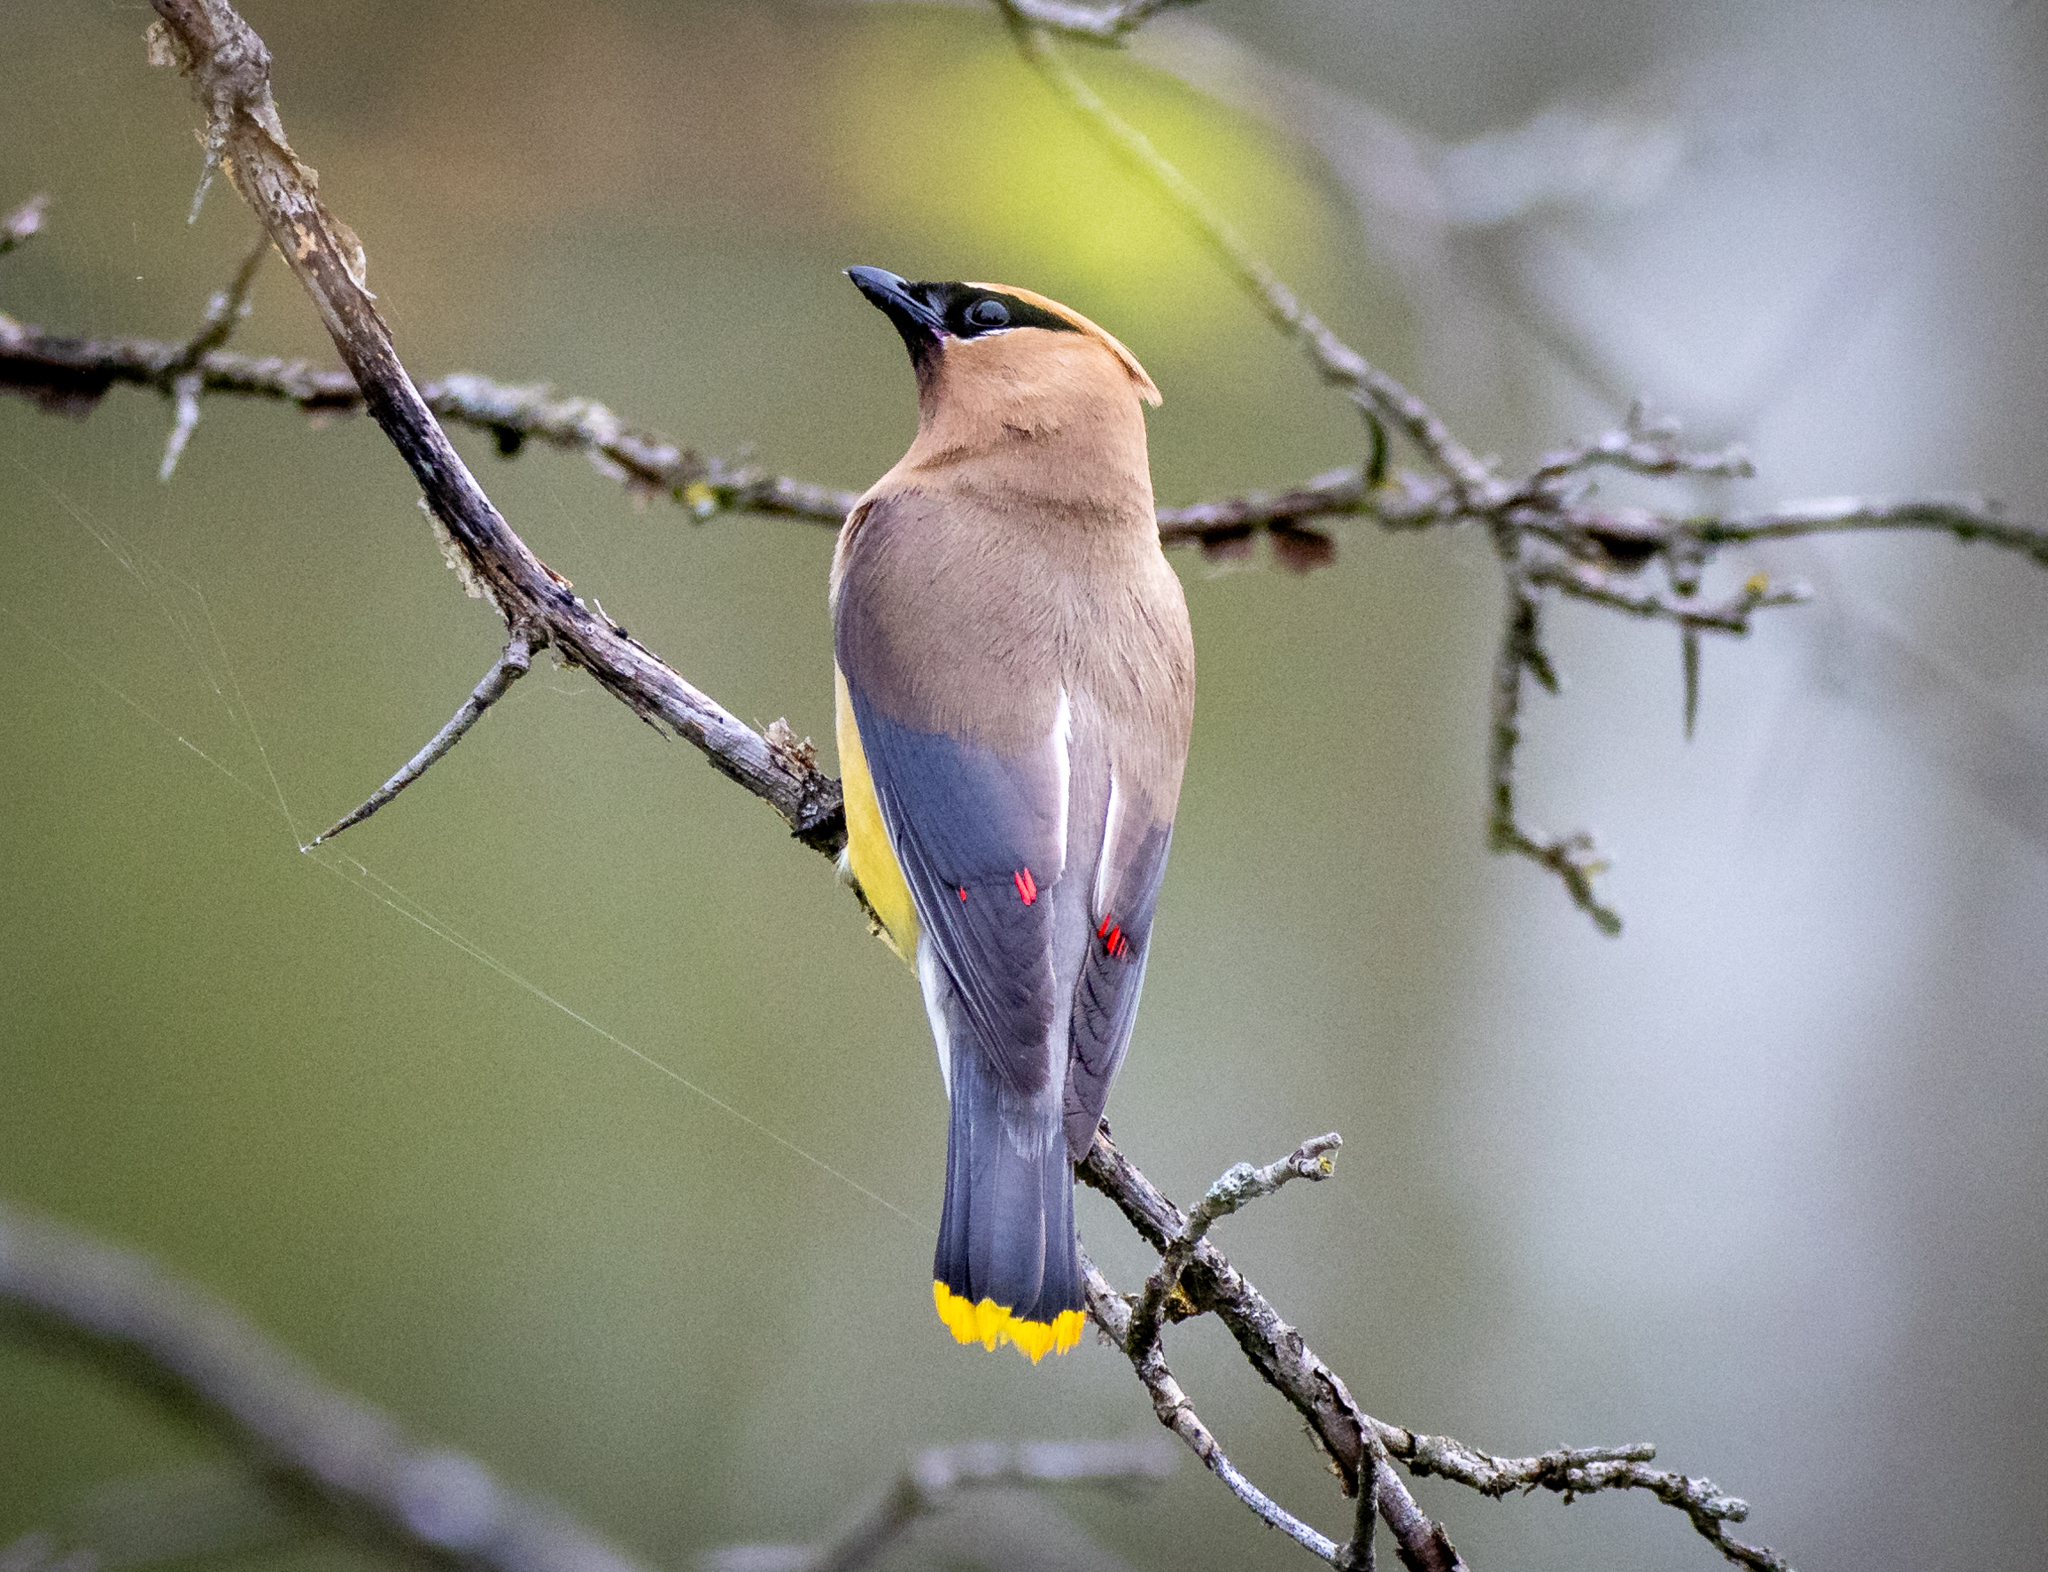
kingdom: Animalia
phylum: Chordata
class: Aves
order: Passeriformes
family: Bombycillidae
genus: Bombycilla
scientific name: Bombycilla cedrorum
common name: Cedar waxwing
